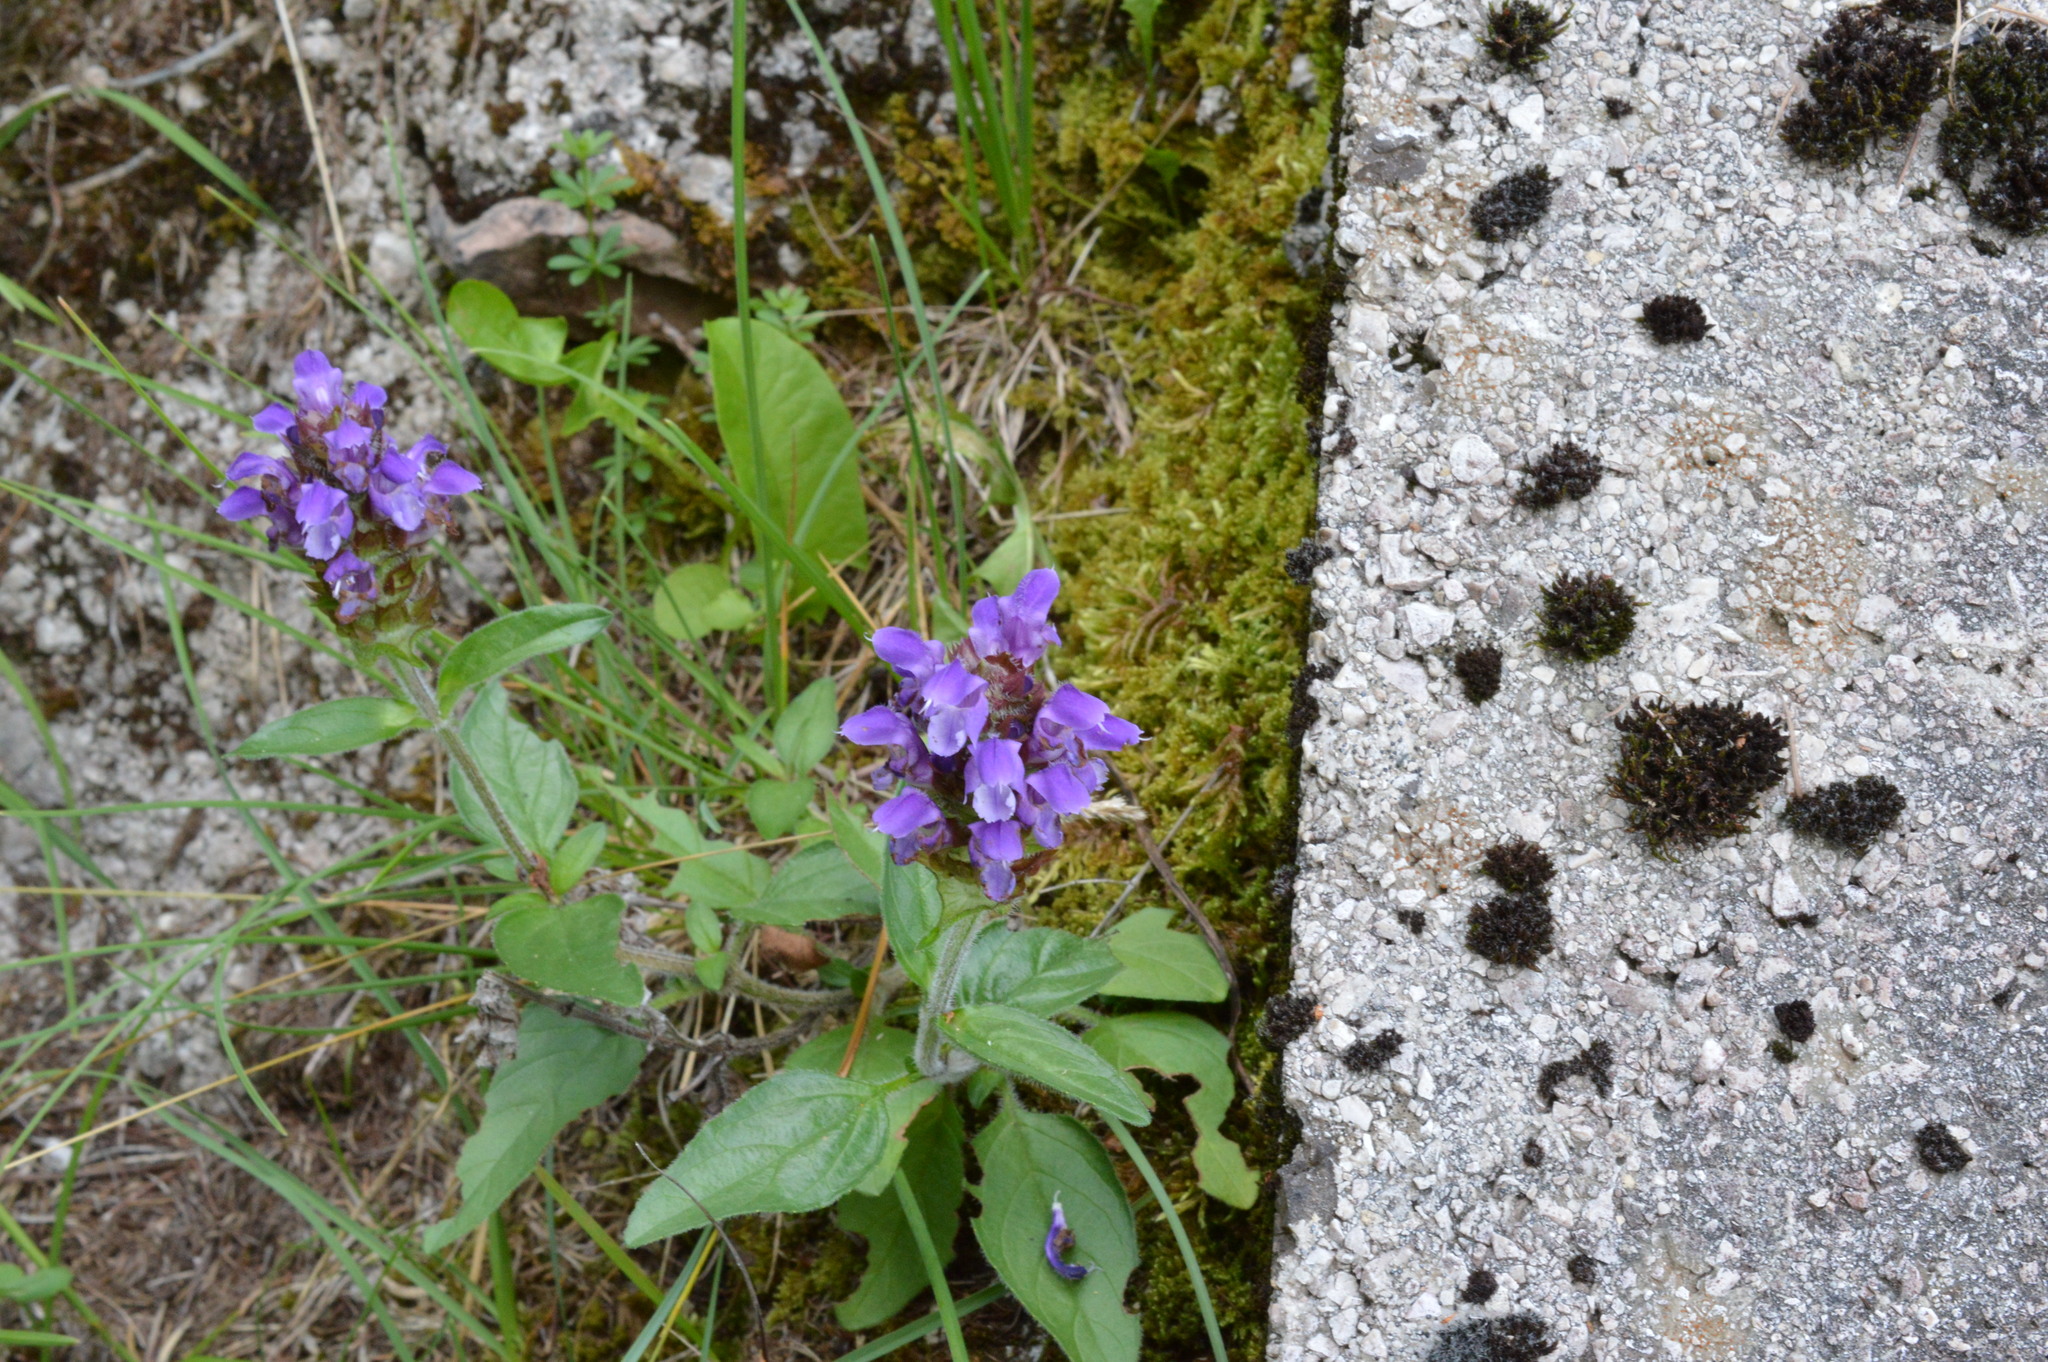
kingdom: Plantae
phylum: Tracheophyta
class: Magnoliopsida
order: Lamiales
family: Lamiaceae
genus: Prunella
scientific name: Prunella grandiflora
